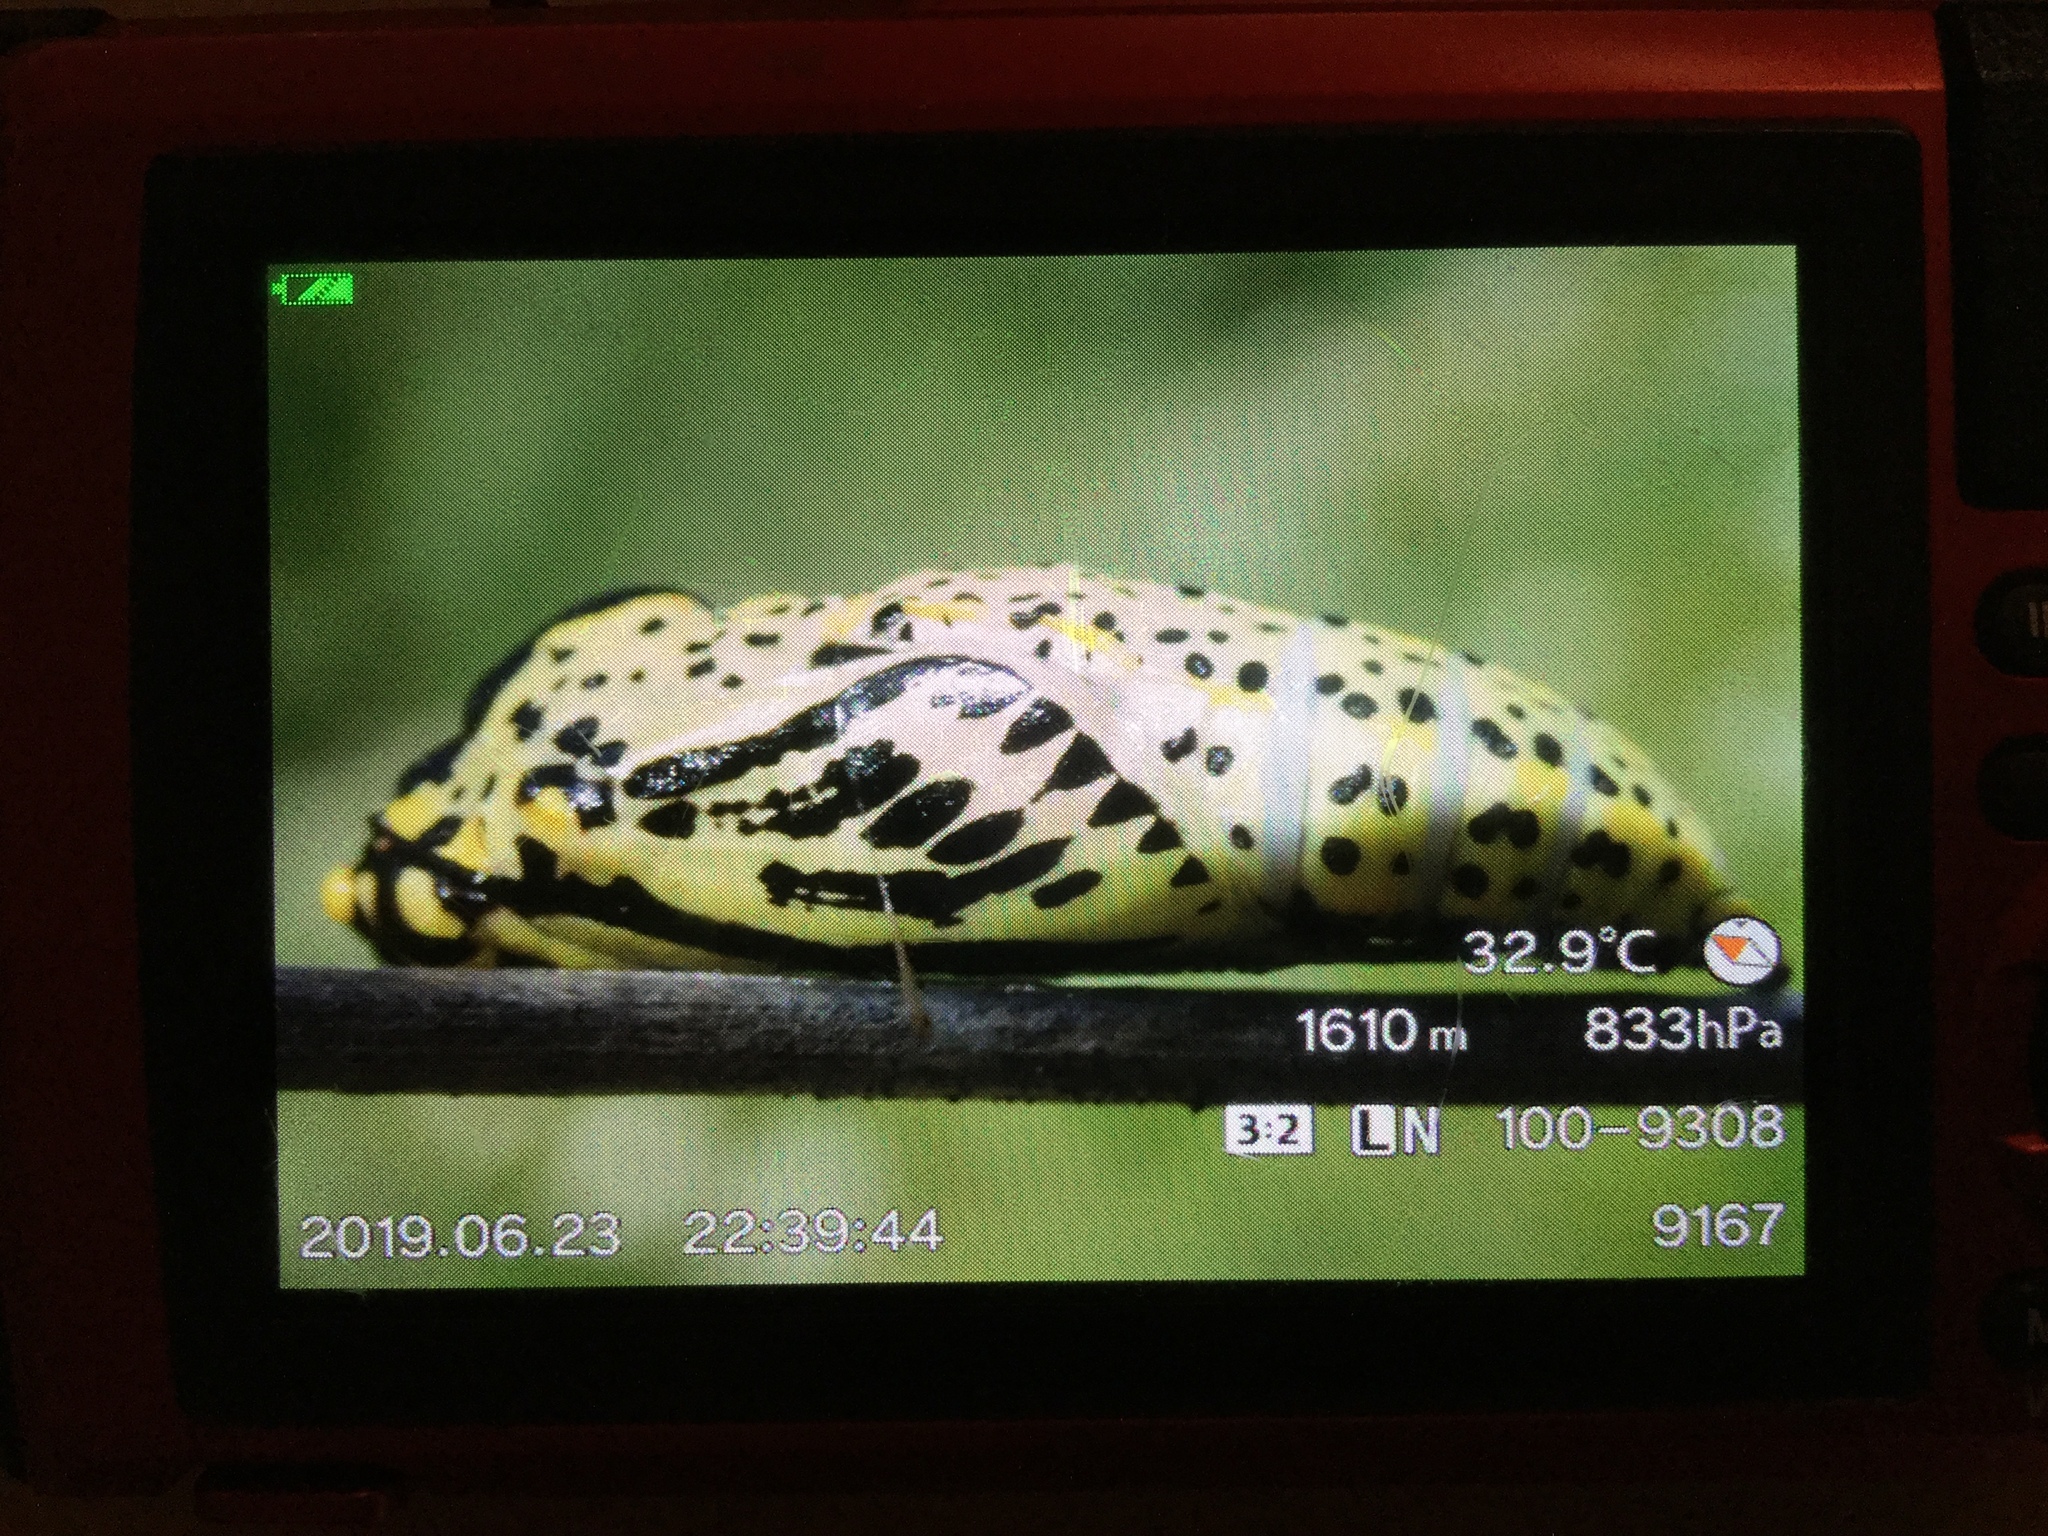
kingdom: Animalia
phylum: Arthropoda
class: Insecta
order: Lepidoptera
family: Pieridae
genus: Aporia
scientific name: Aporia crataegi
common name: Black-veined white
